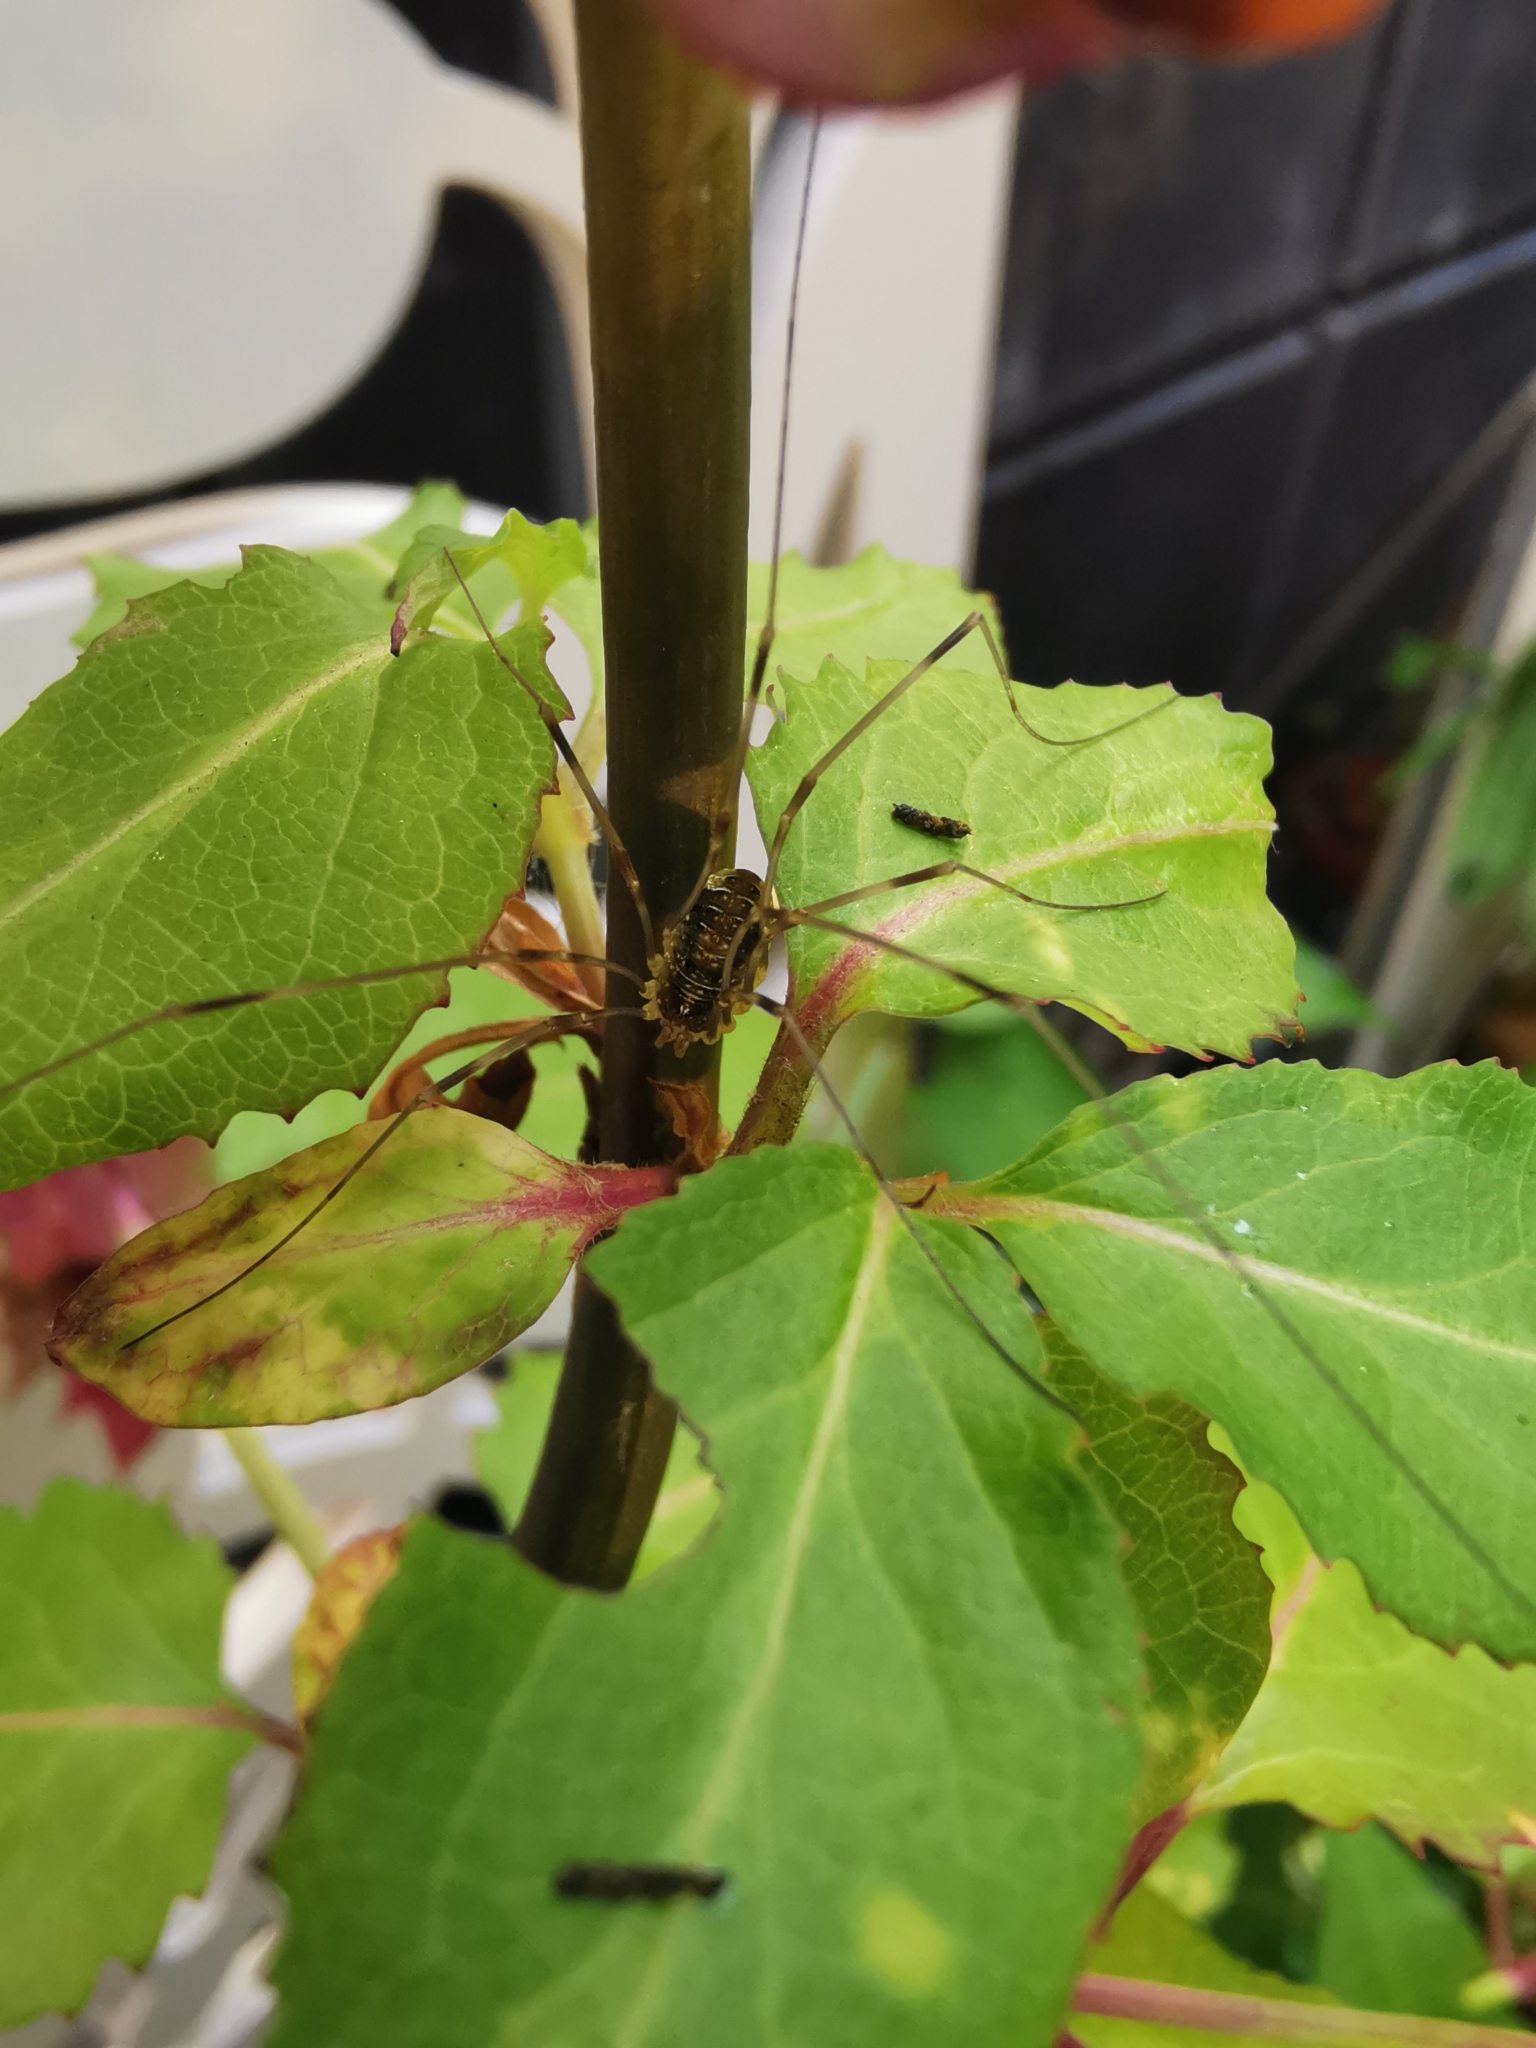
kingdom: Animalia
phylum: Arthropoda
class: Arachnida
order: Opiliones
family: Phalangiidae
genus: Opilio
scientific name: Opilio canestrinii
